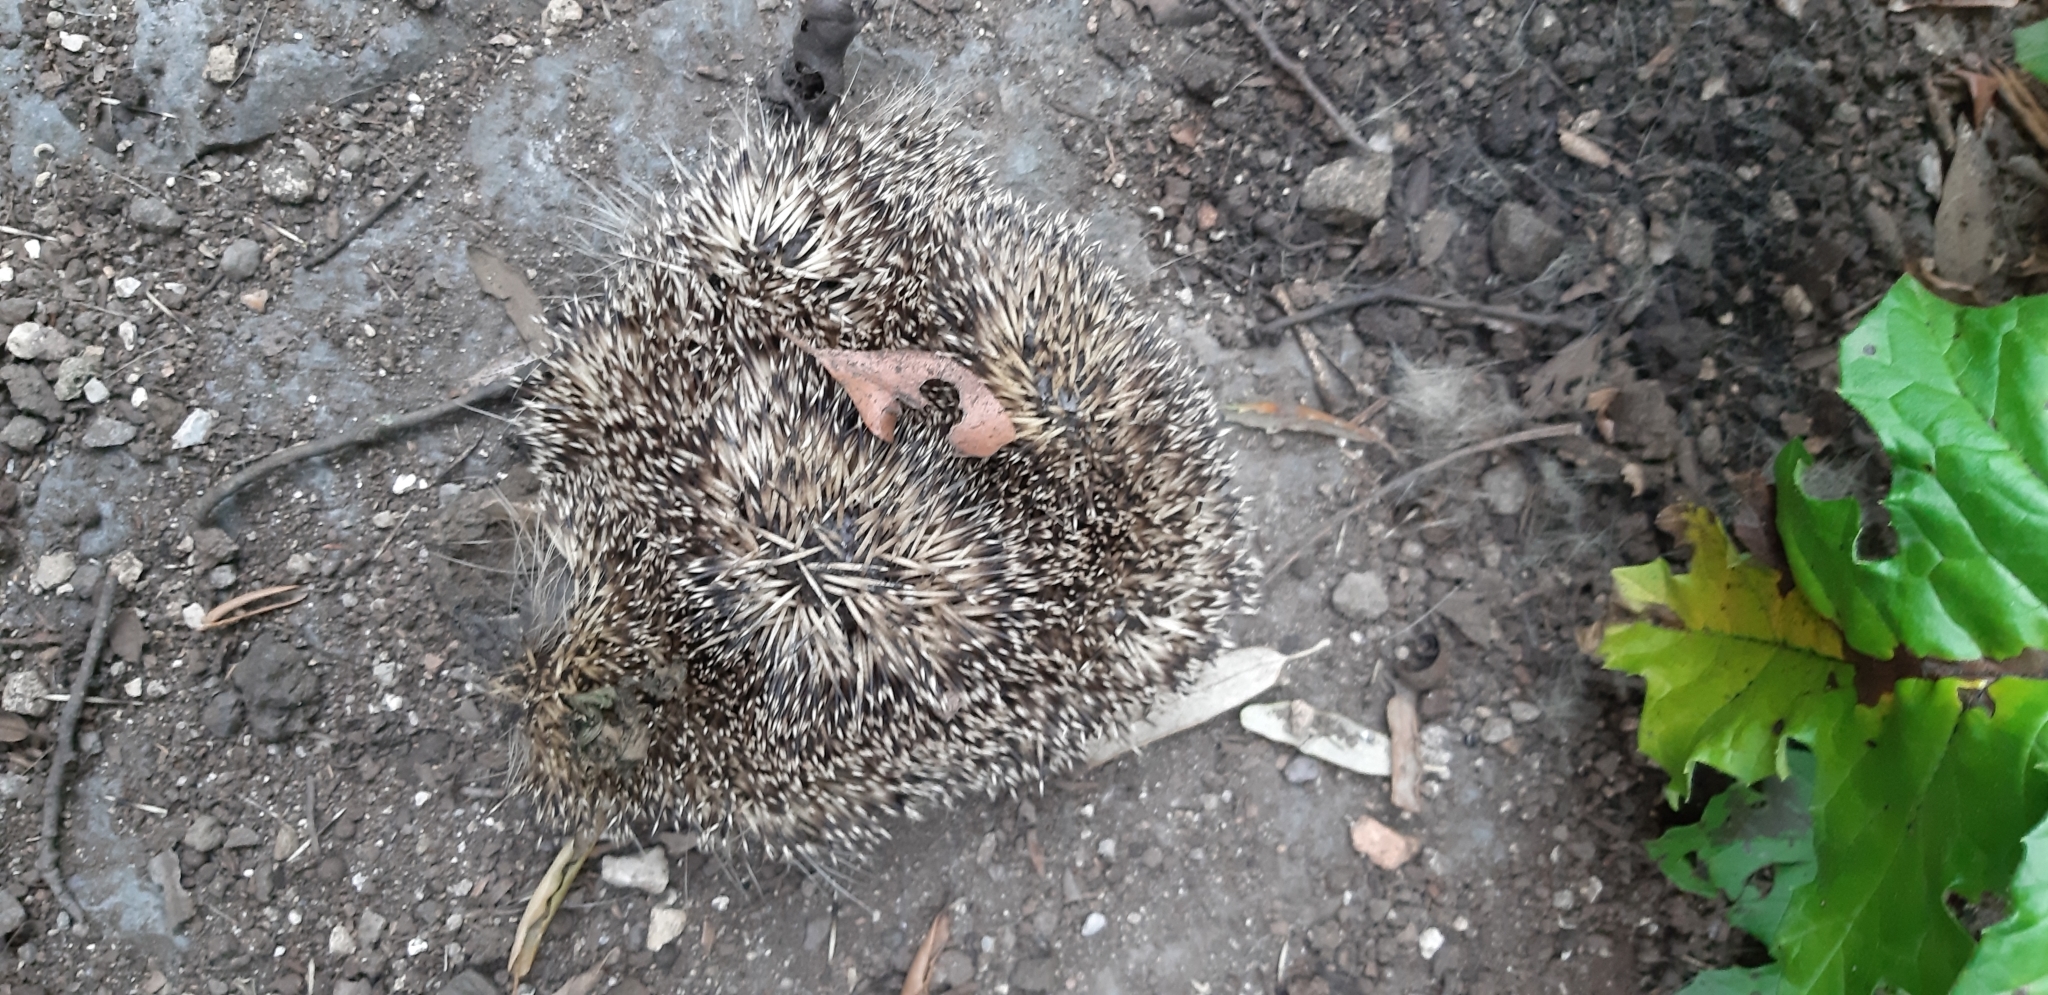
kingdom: Animalia
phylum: Chordata
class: Mammalia
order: Erinaceomorpha
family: Erinaceidae
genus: Erinaceus
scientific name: Erinaceus europaeus
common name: West european hedgehog
